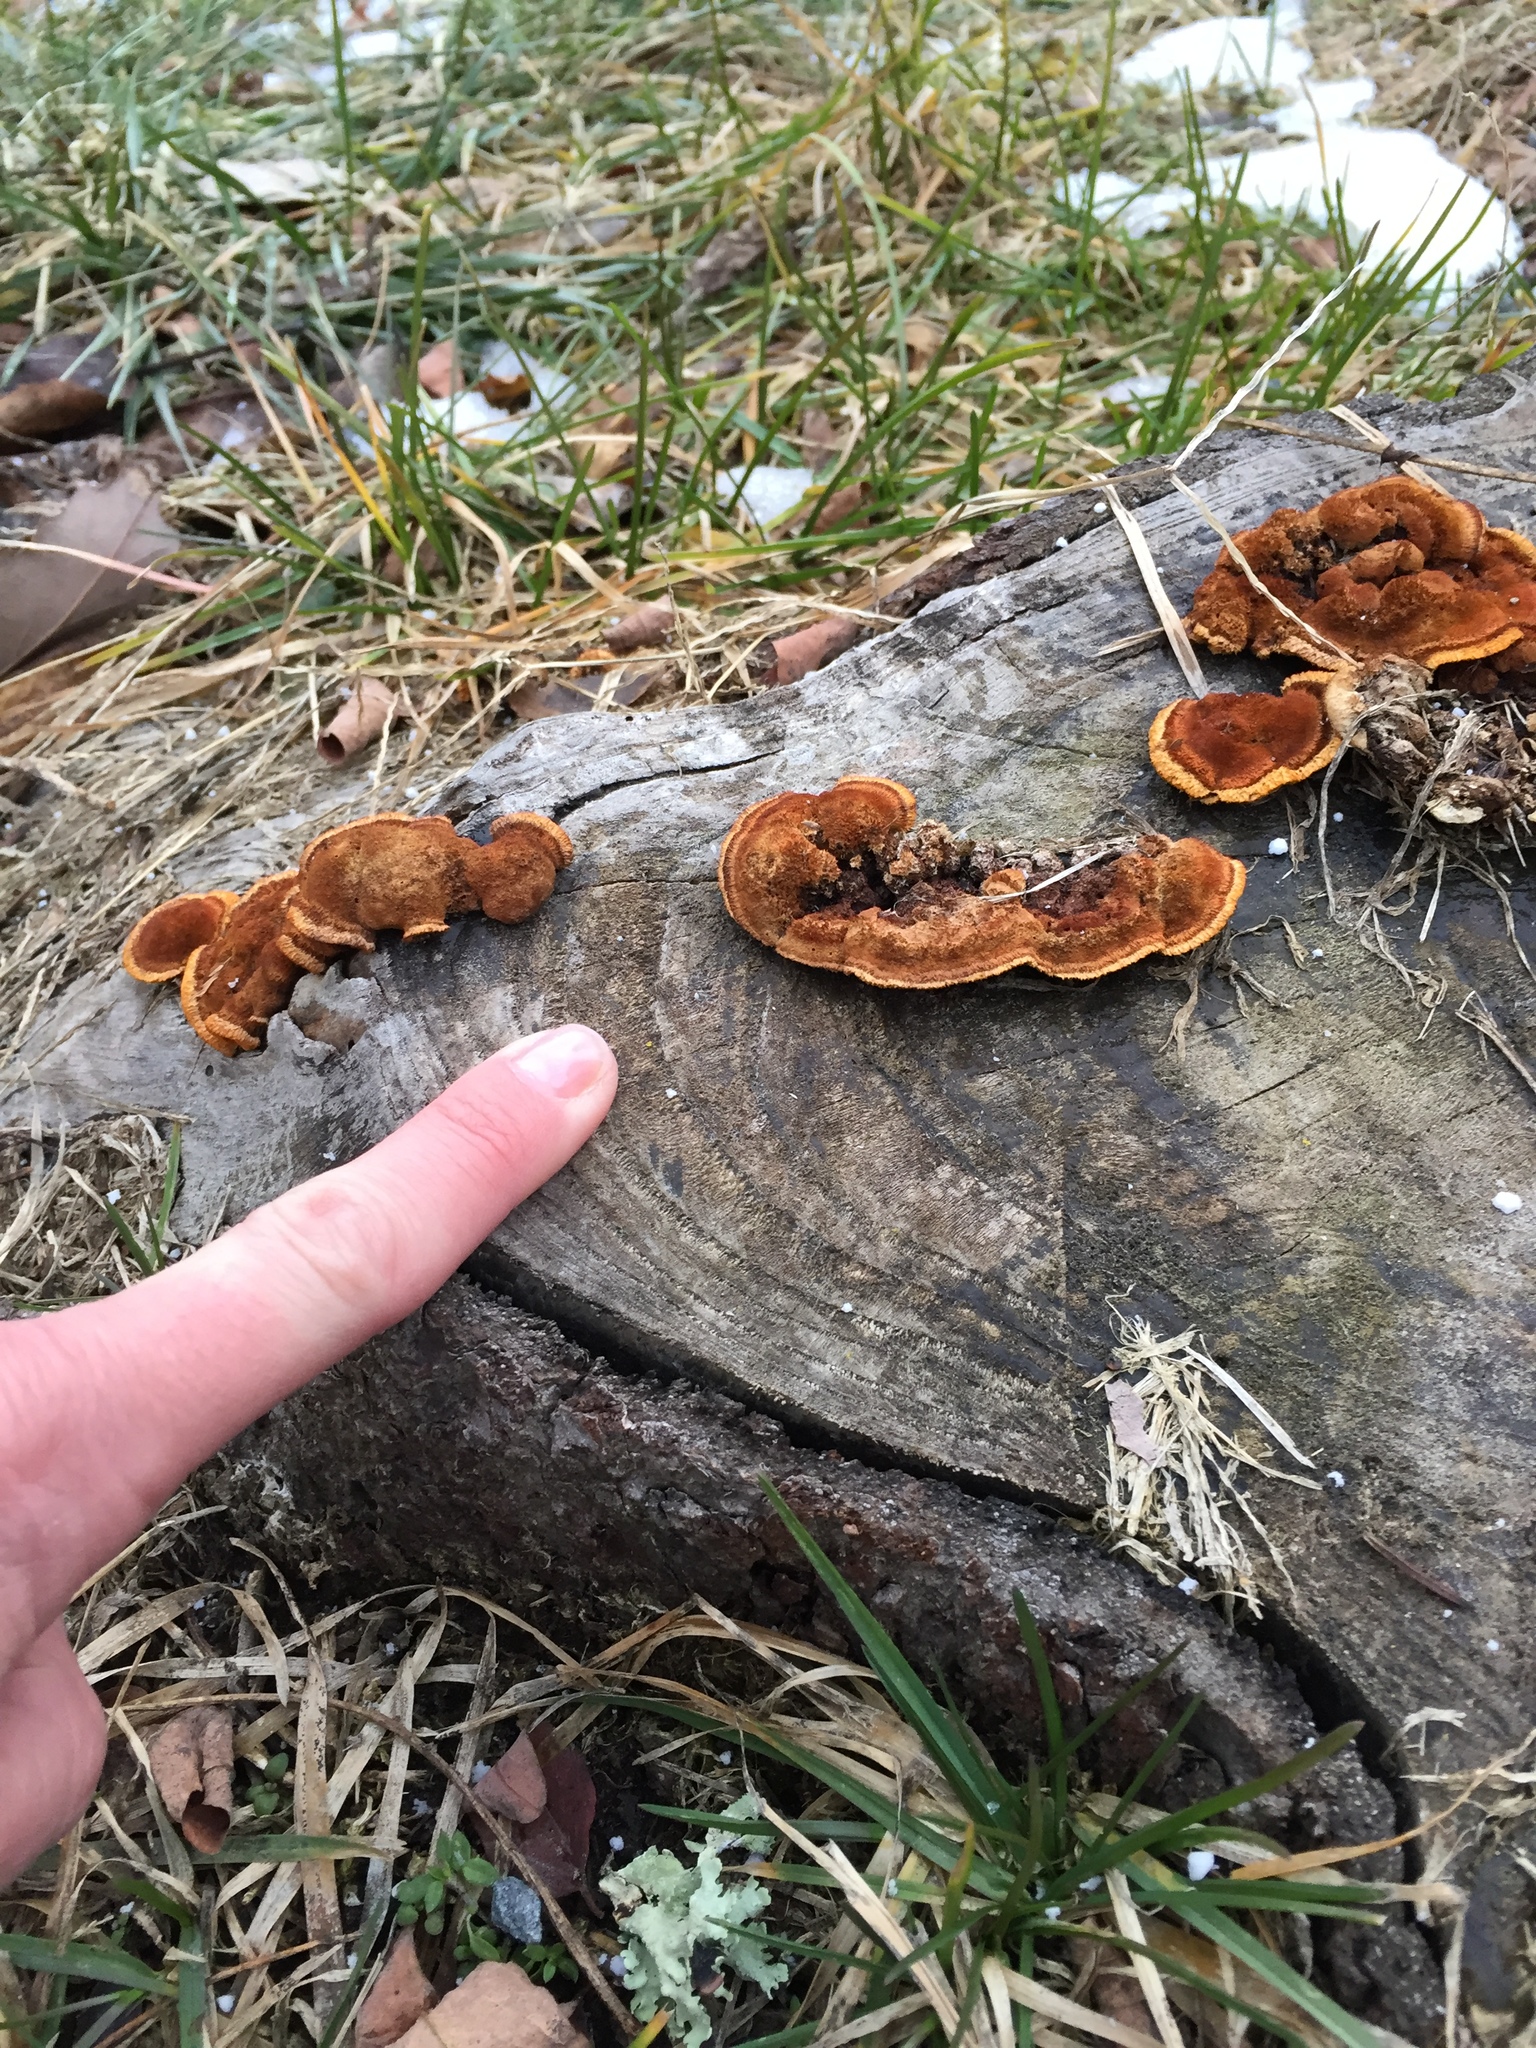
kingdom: Fungi
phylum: Basidiomycota
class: Agaricomycetes
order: Gloeophyllales
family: Gloeophyllaceae
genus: Gloeophyllum
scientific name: Gloeophyllum sepiarium
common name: Conifer mazegill
